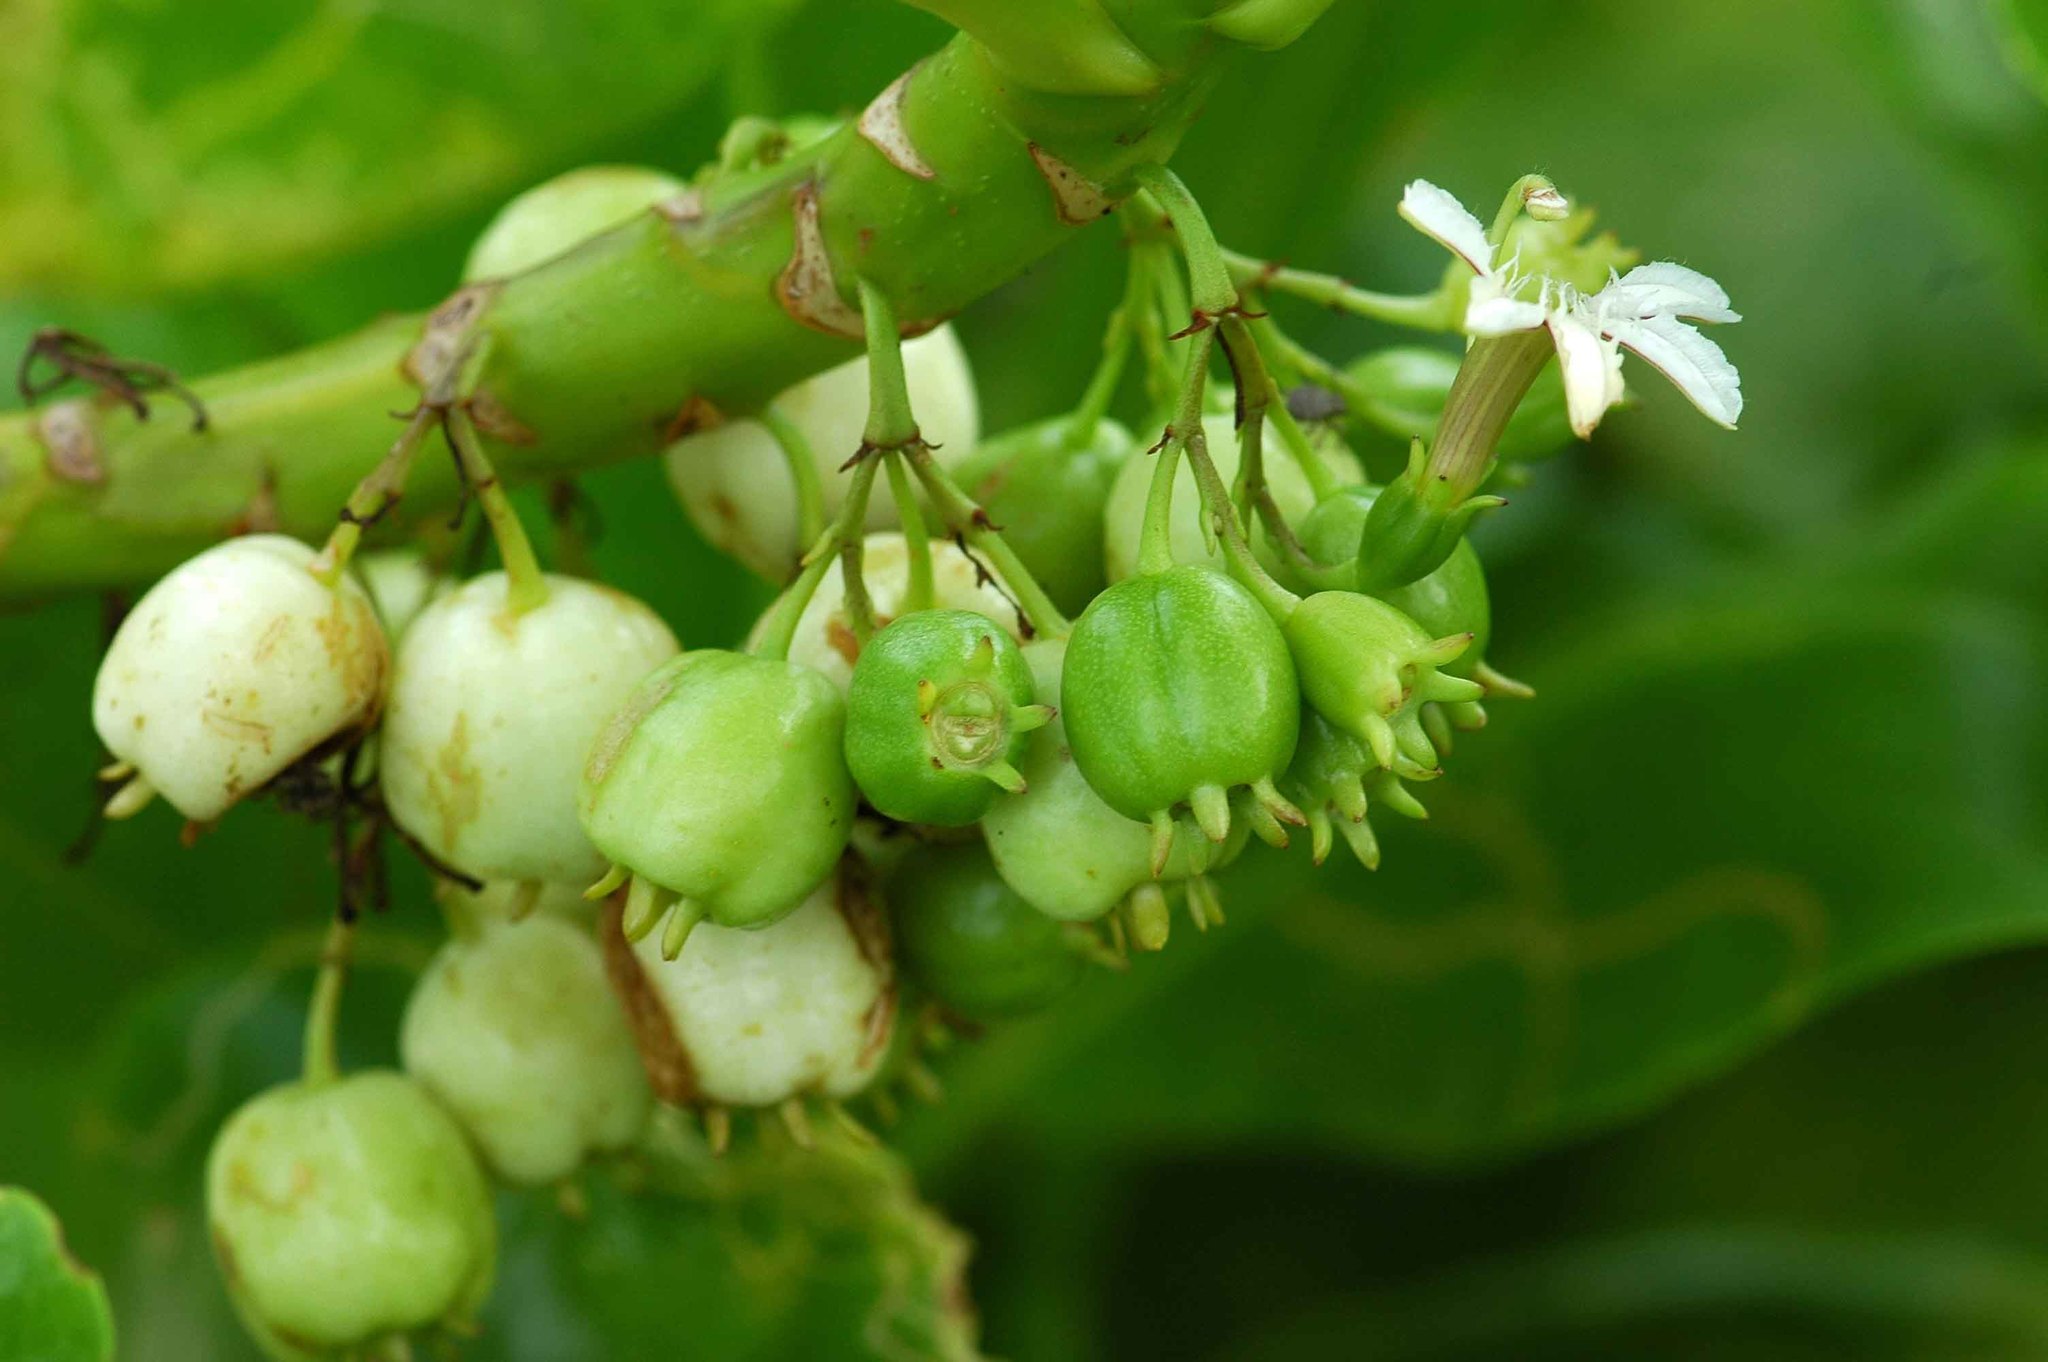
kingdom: Plantae
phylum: Tracheophyta
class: Magnoliopsida
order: Asterales
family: Goodeniaceae
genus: Scaevola
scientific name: Scaevola taccada
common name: Sea lettucetree
